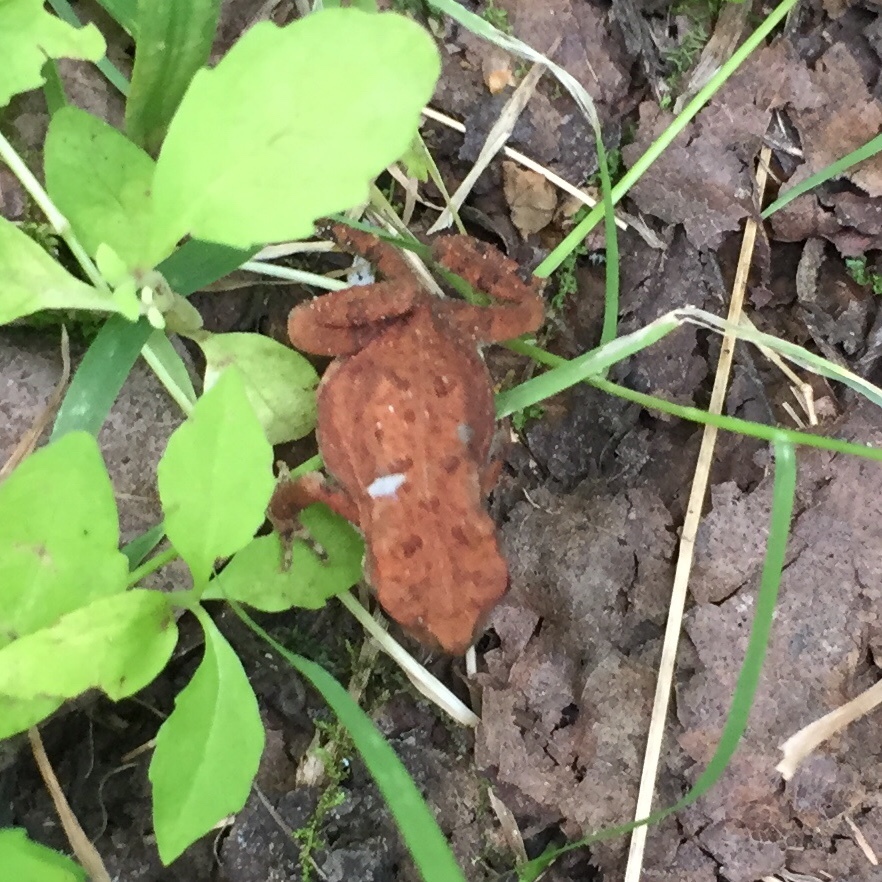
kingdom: Animalia
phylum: Chordata
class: Amphibia
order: Anura
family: Bufonidae
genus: Anaxyrus
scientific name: Anaxyrus americanus
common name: American toad
